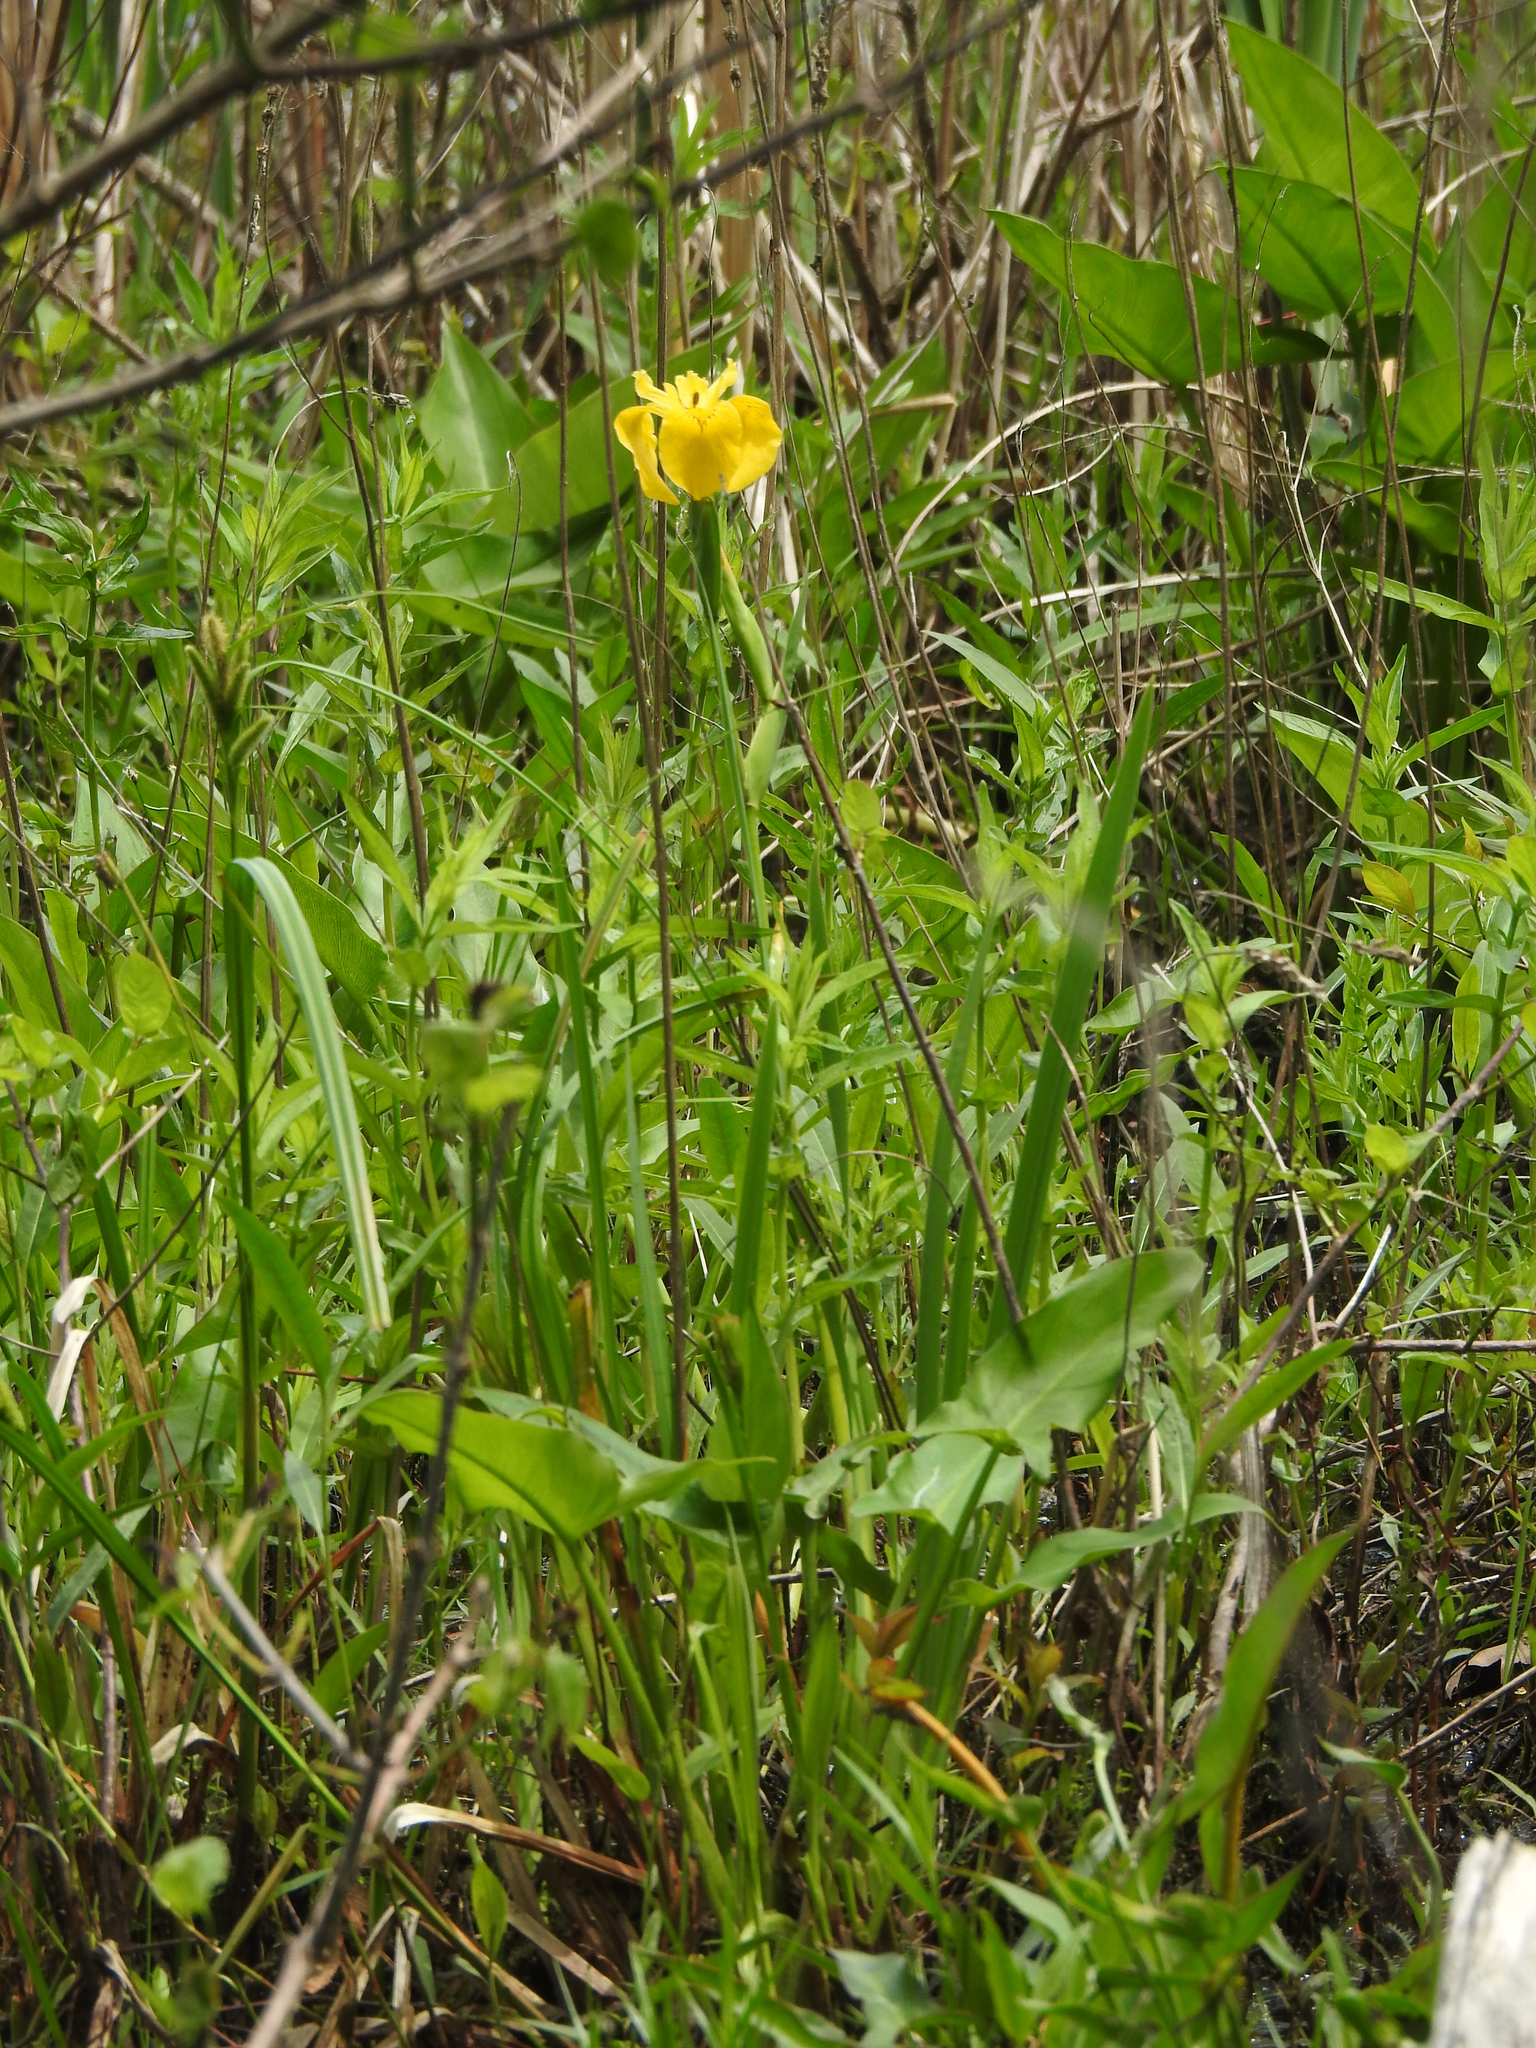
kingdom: Plantae
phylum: Tracheophyta
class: Liliopsida
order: Asparagales
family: Iridaceae
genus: Iris
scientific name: Iris pseudacorus
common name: Yellow flag
